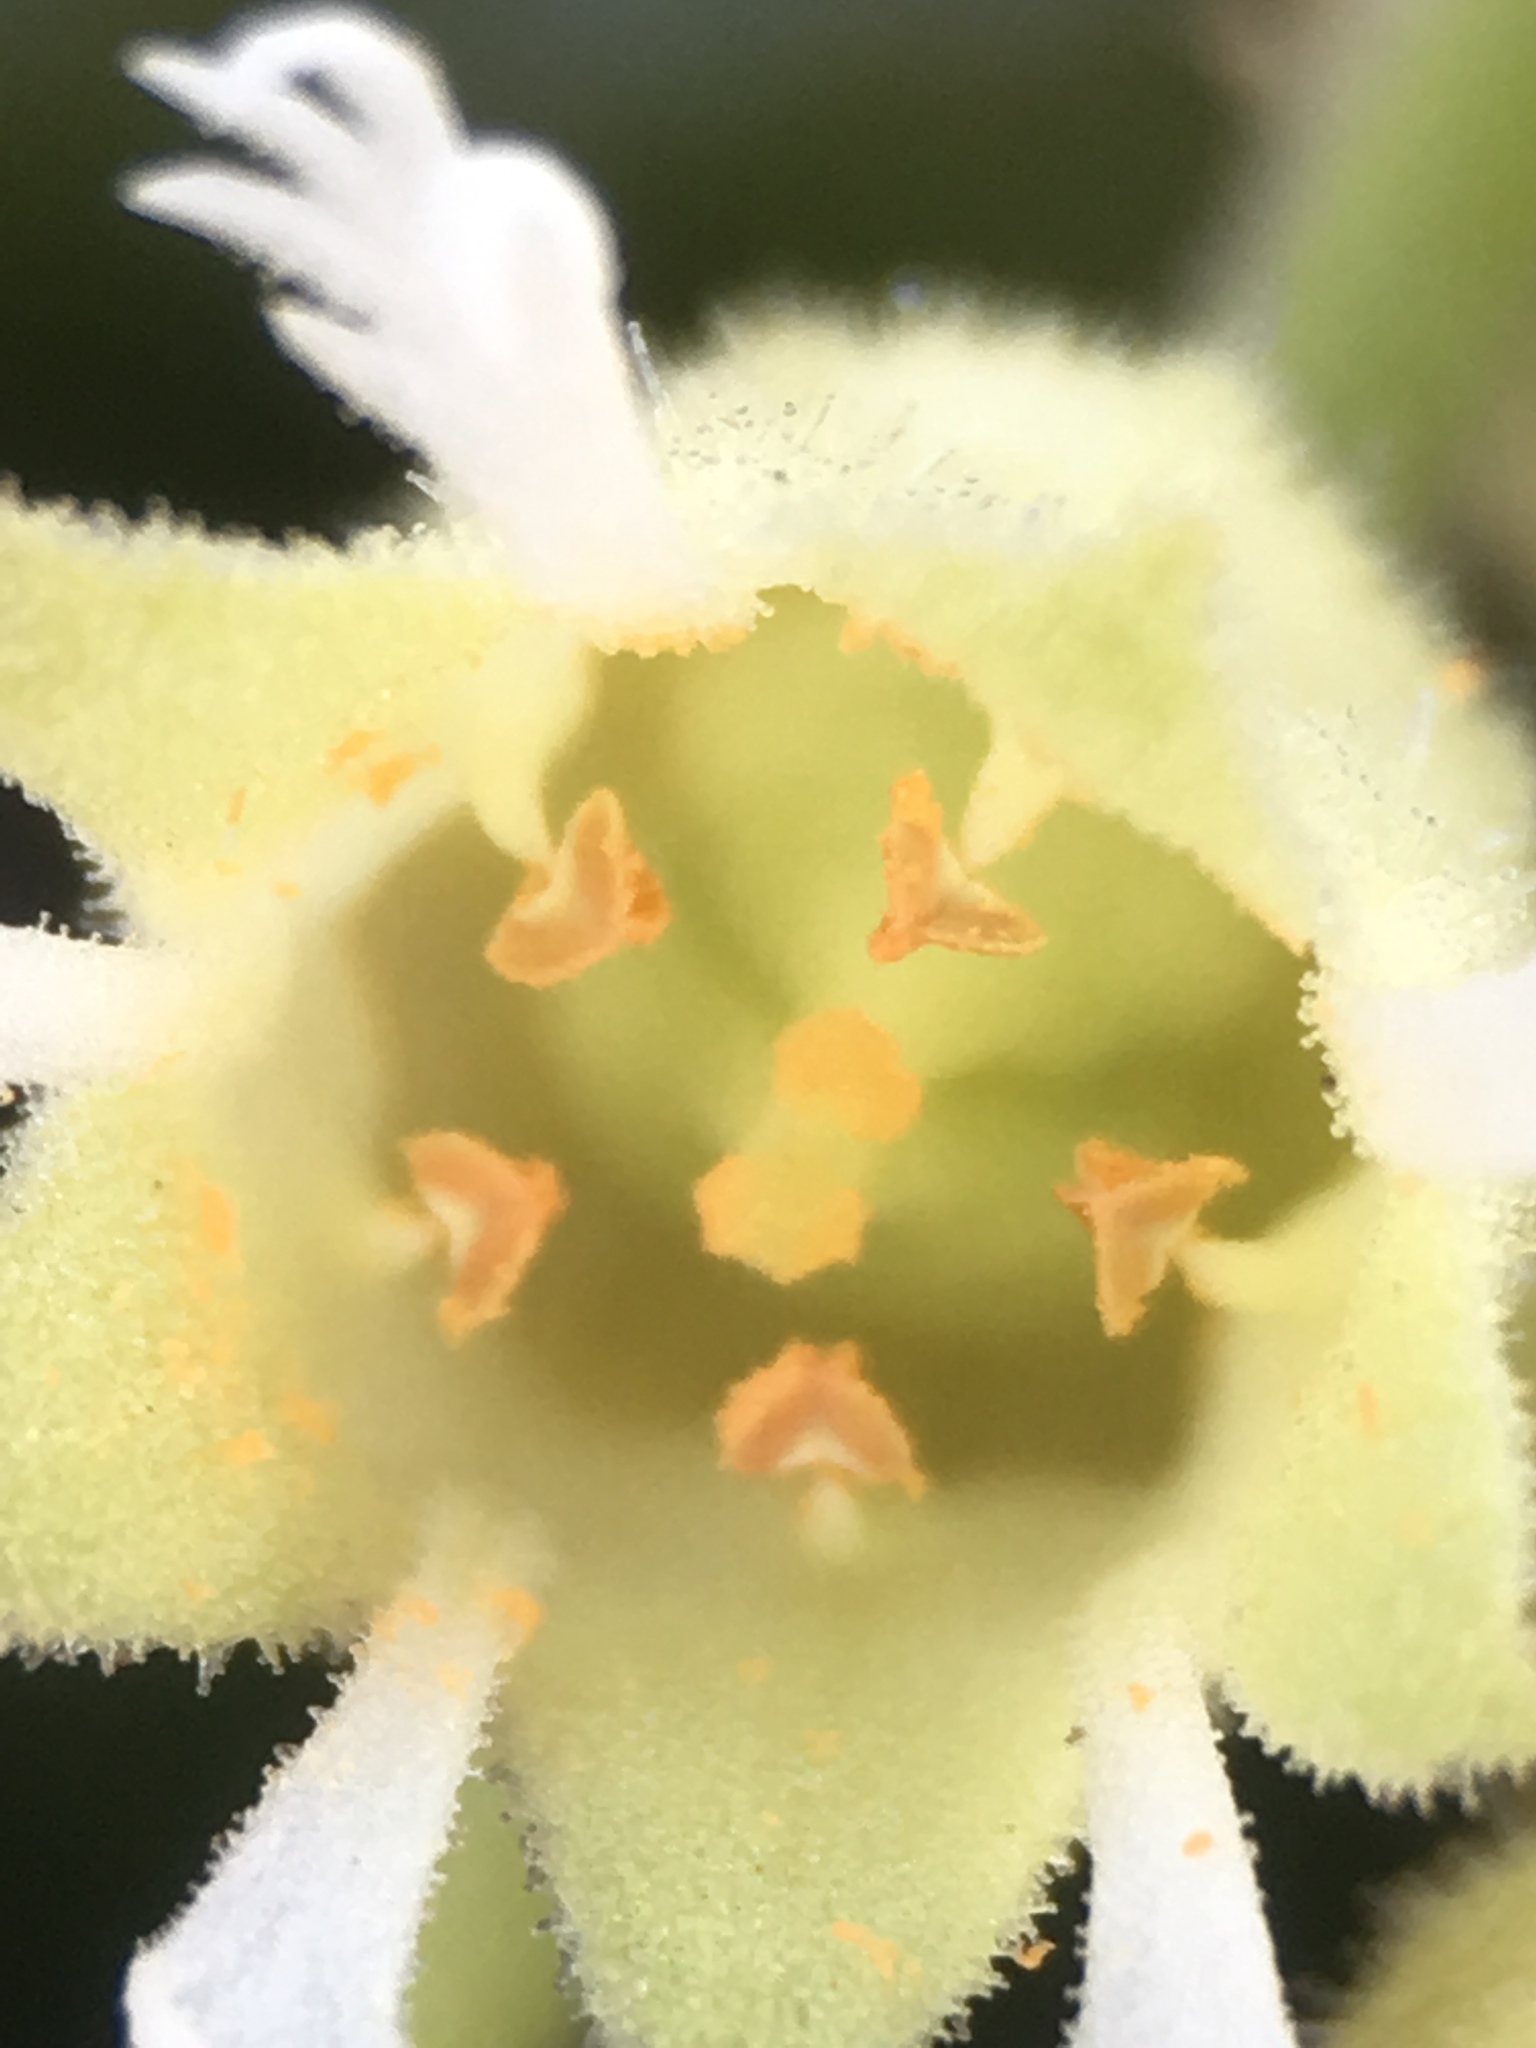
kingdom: Plantae
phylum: Tracheophyta
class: Magnoliopsida
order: Saxifragales
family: Saxifragaceae
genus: Elmera
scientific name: Elmera racemosa
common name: Elmera
